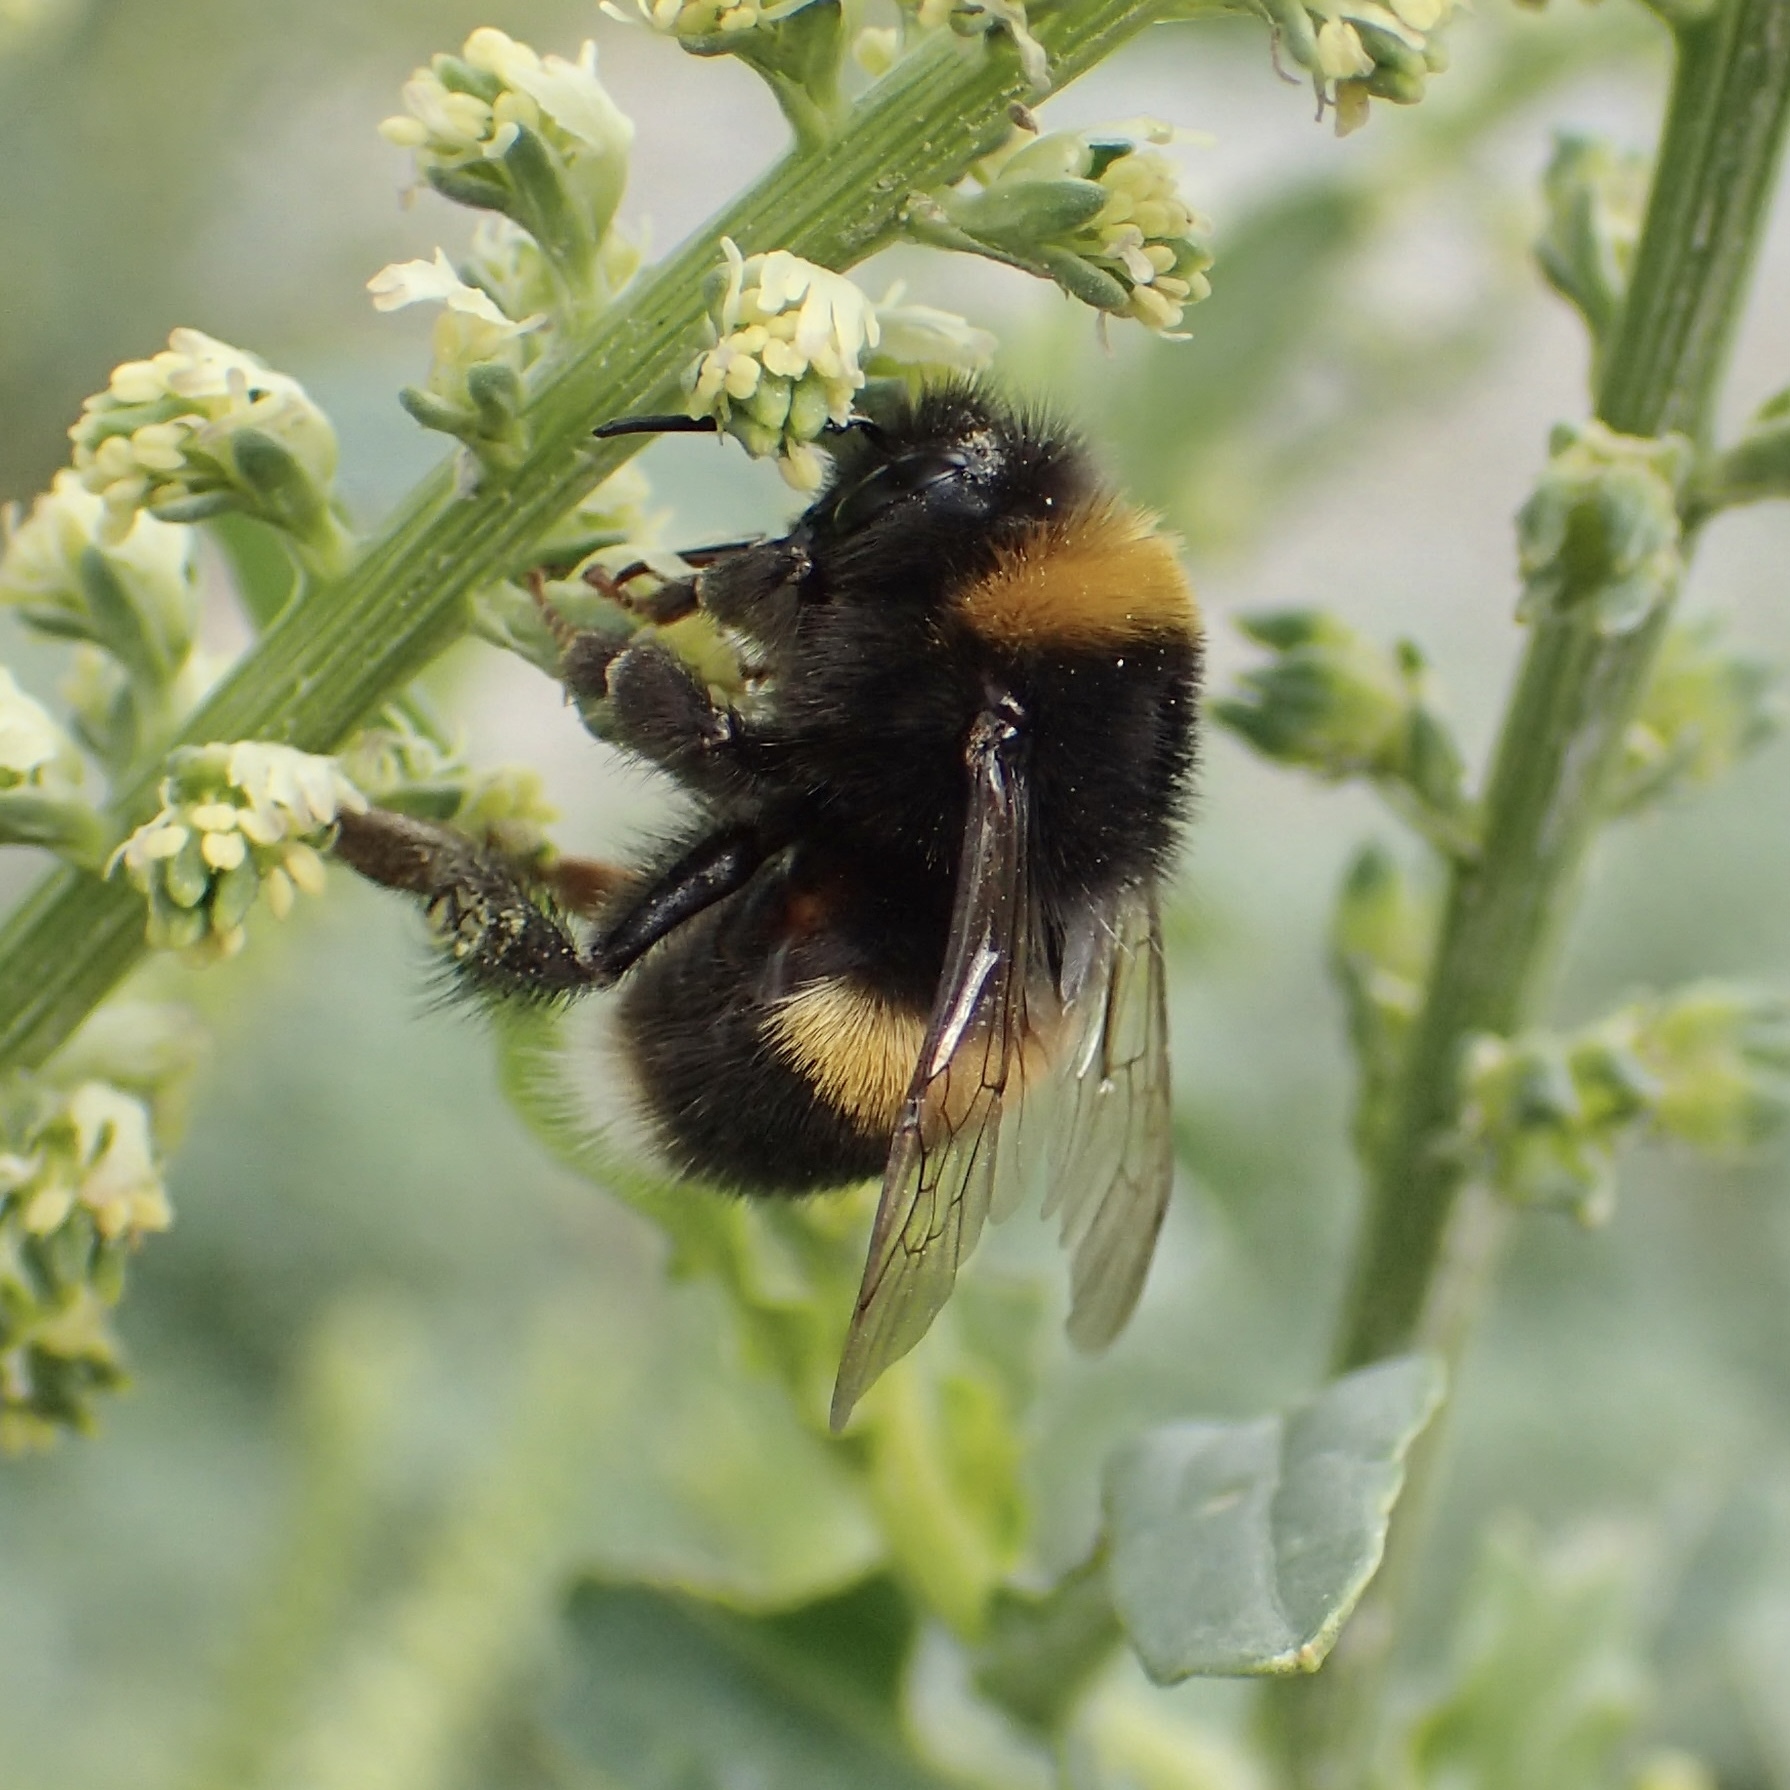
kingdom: Animalia
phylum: Arthropoda
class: Insecta
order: Hymenoptera
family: Apidae
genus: Bombus
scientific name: Bombus terrestris
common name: Buff-tailed bumblebee
